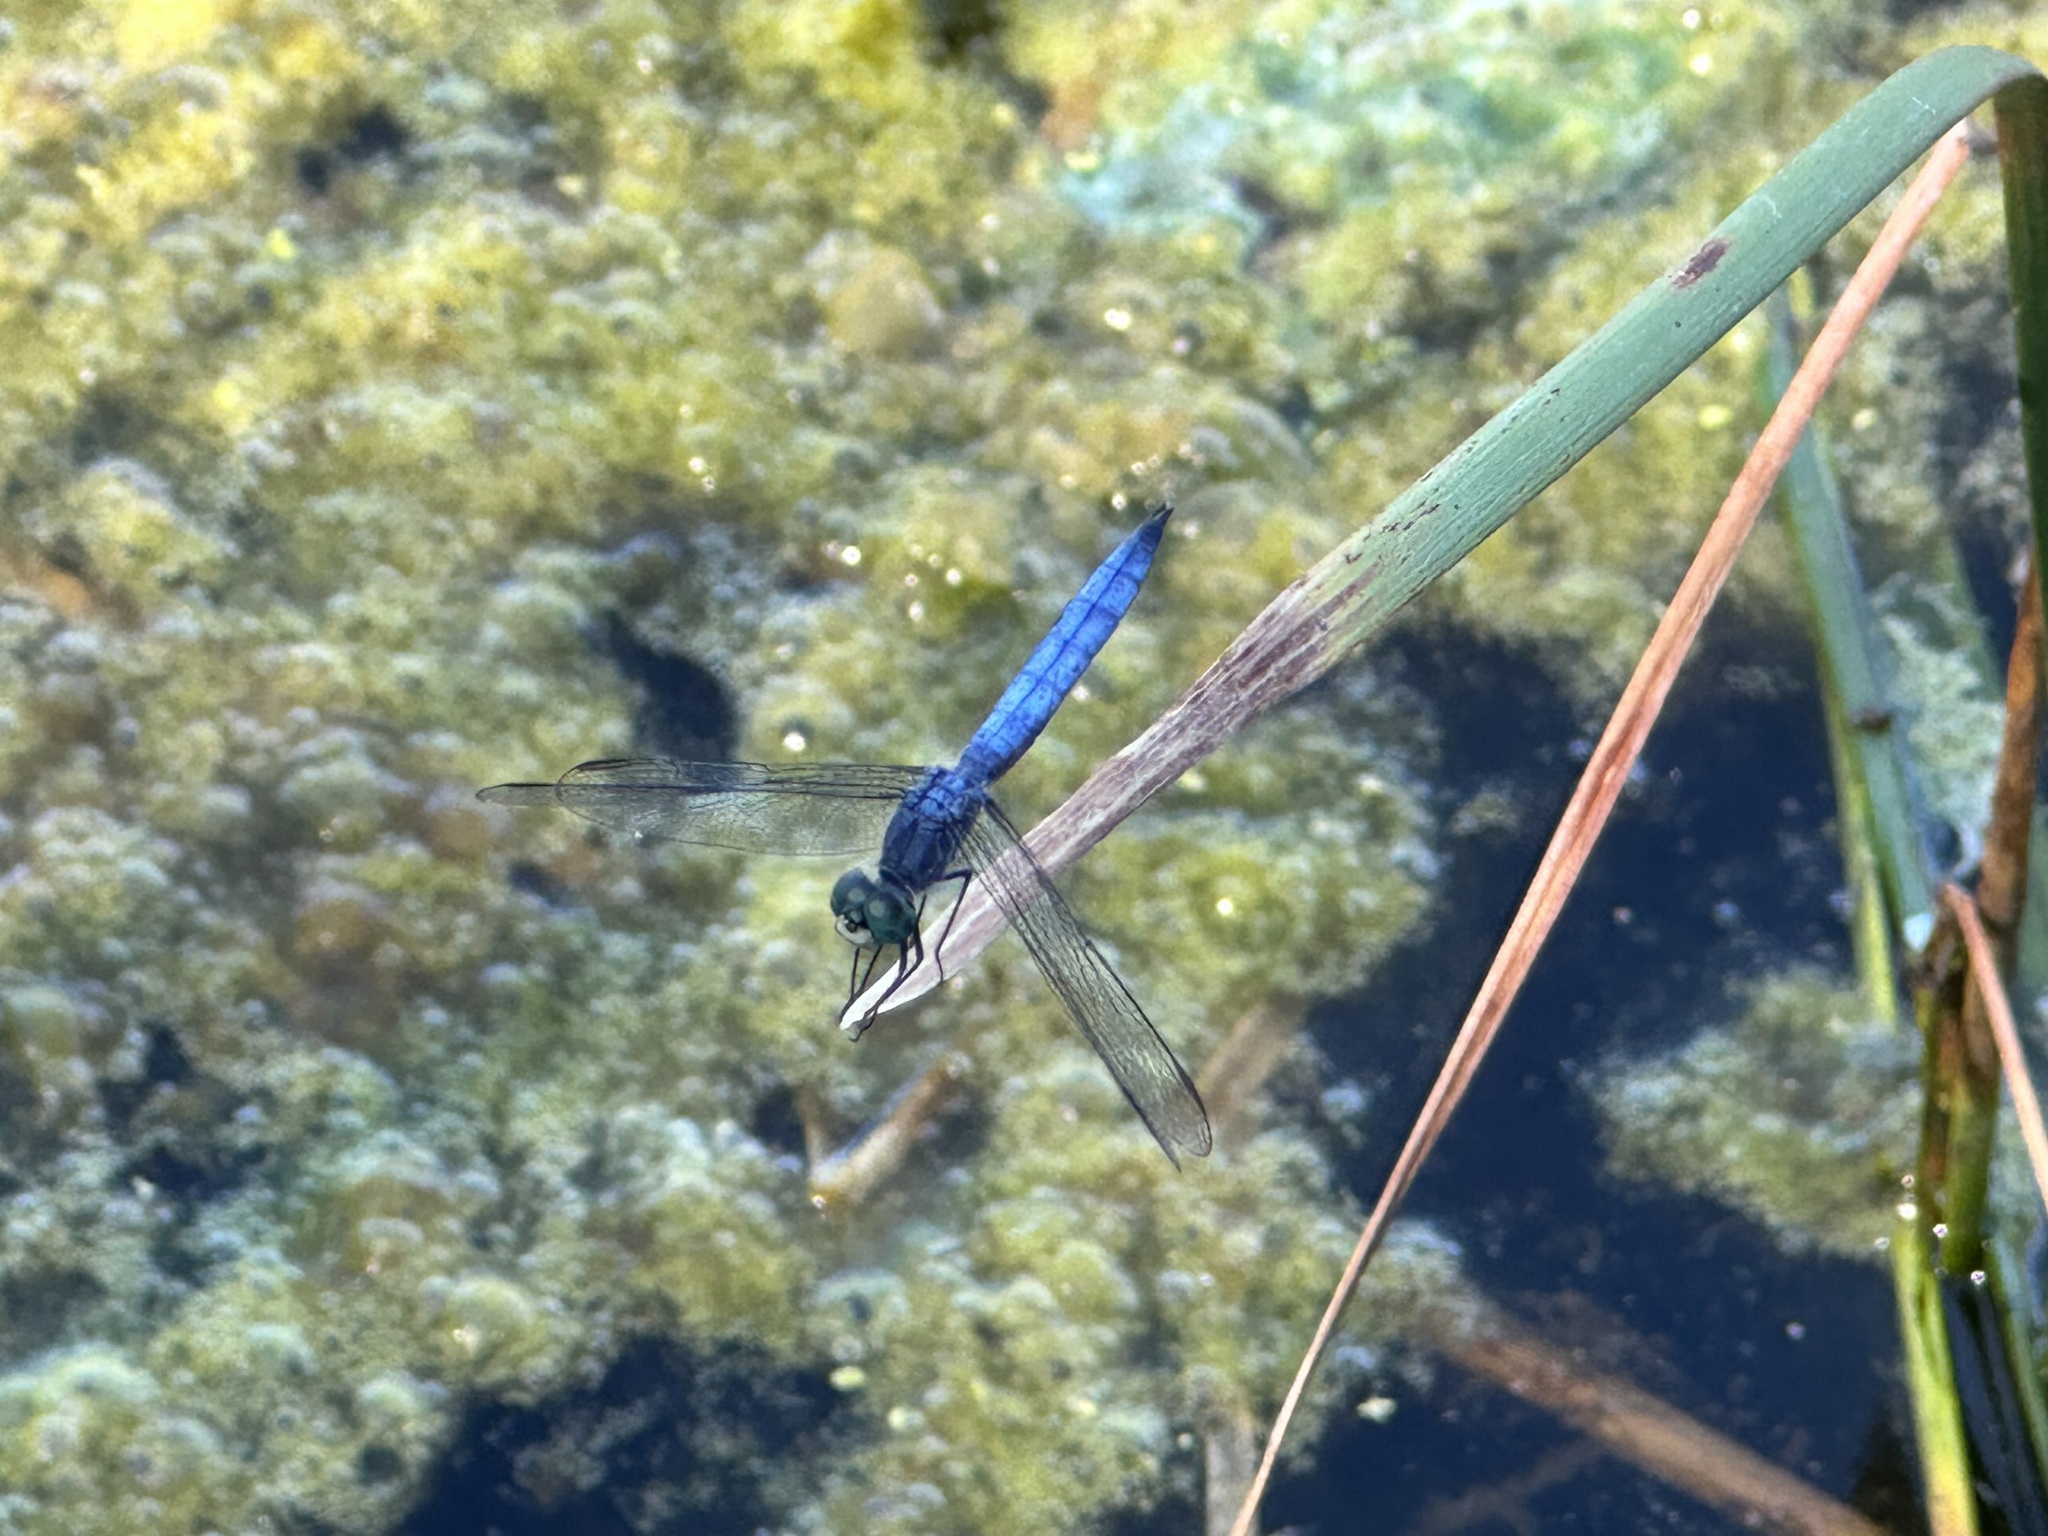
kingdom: Animalia
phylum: Arthropoda
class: Insecta
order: Odonata
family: Libellulidae
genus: Pachydiplax
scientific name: Pachydiplax longipennis
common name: Blue dasher
